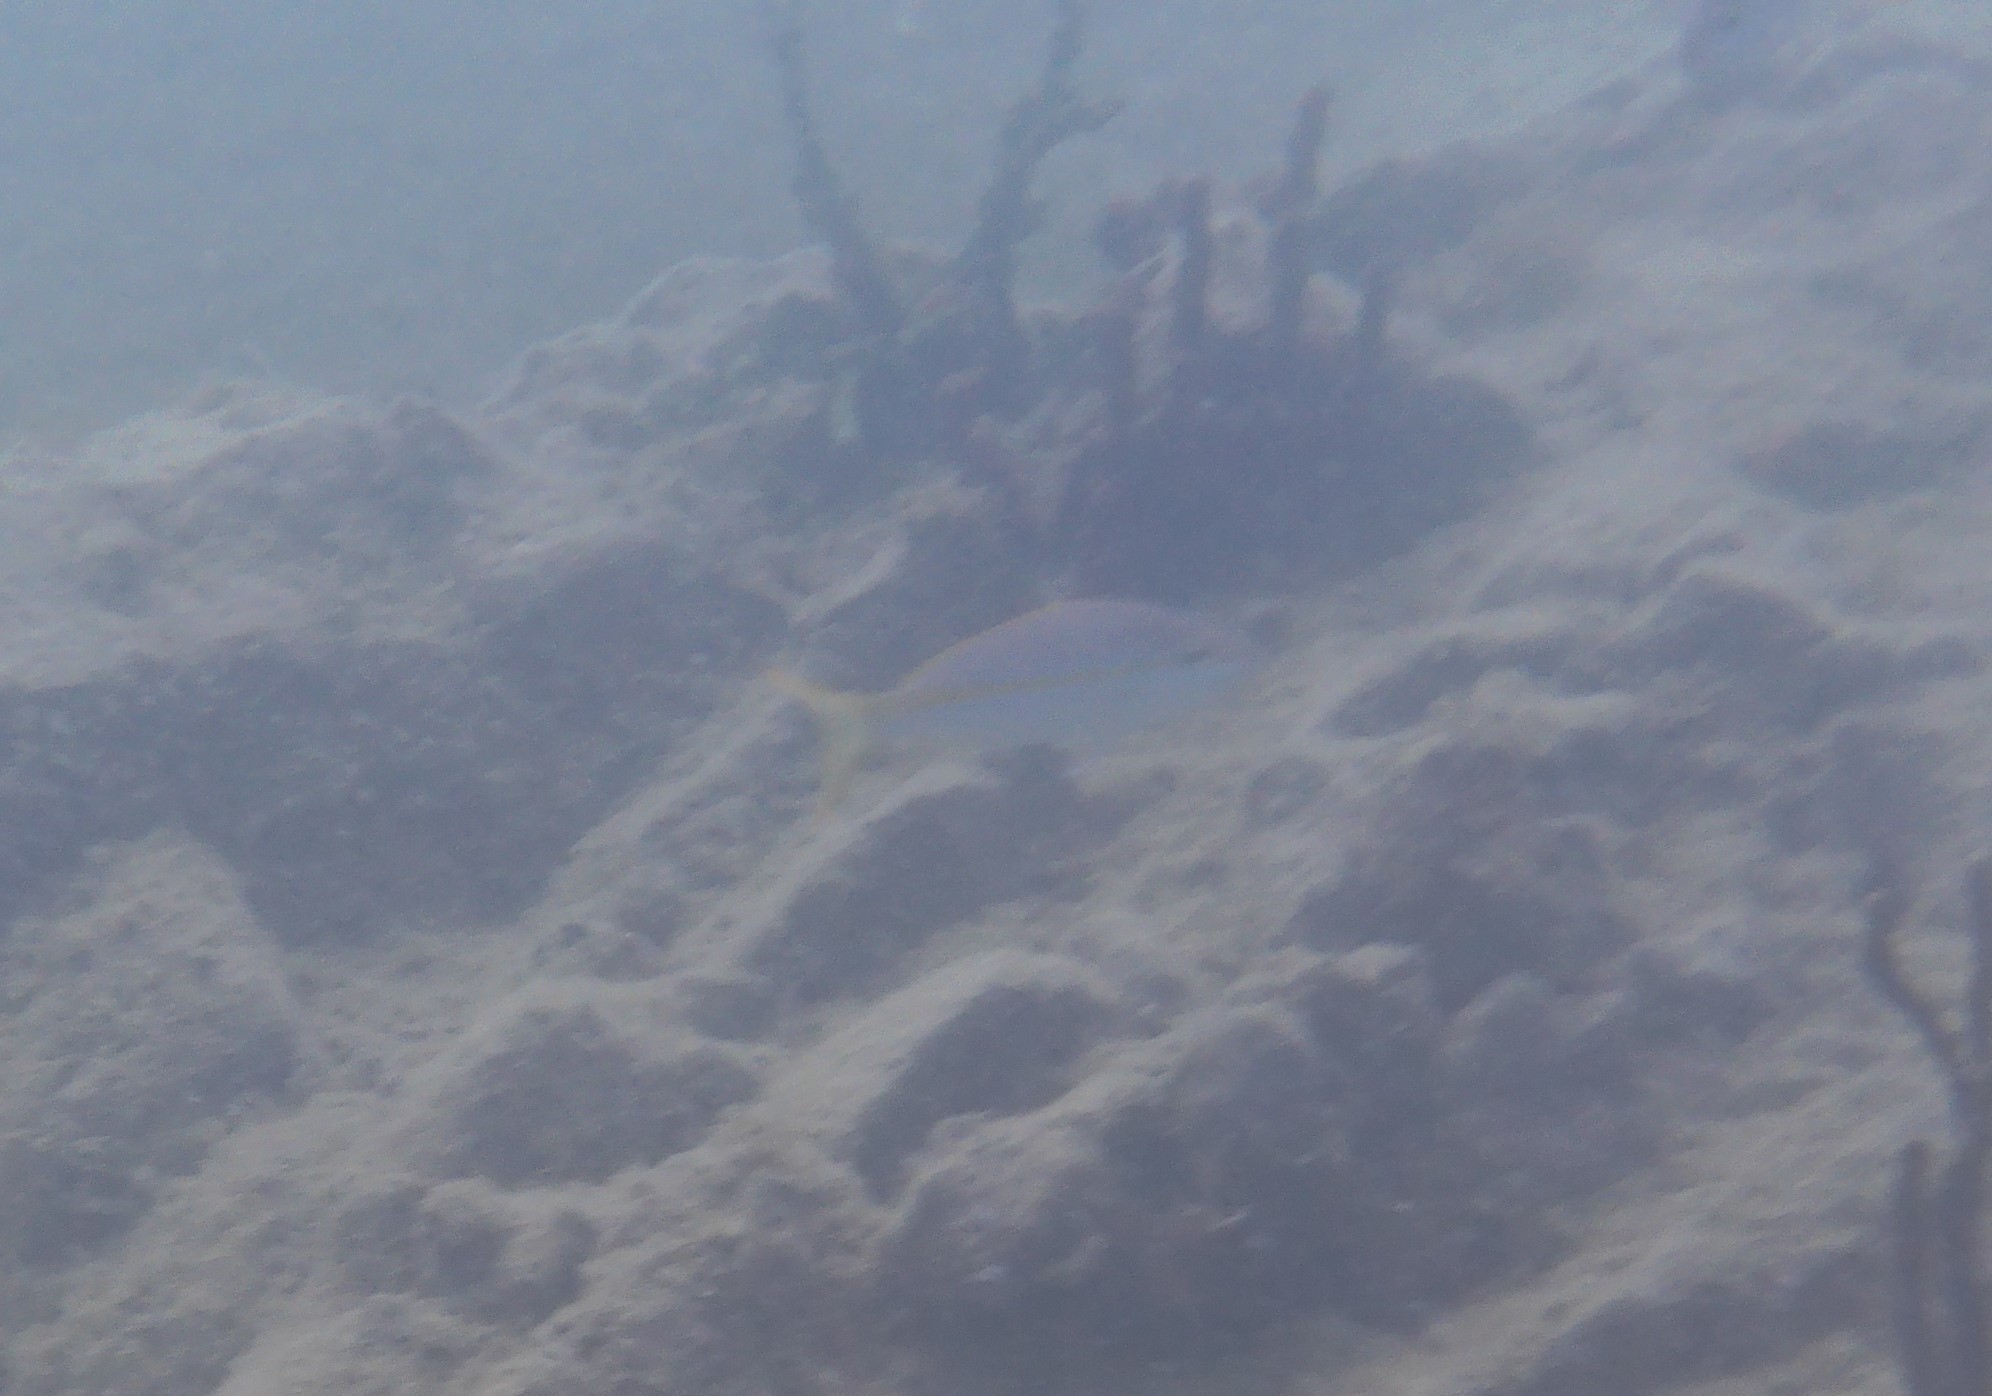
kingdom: Animalia
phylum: Chordata
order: Perciformes
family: Lutjanidae
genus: Ocyurus
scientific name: Ocyurus chrysurus
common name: Yellowtail snapper
